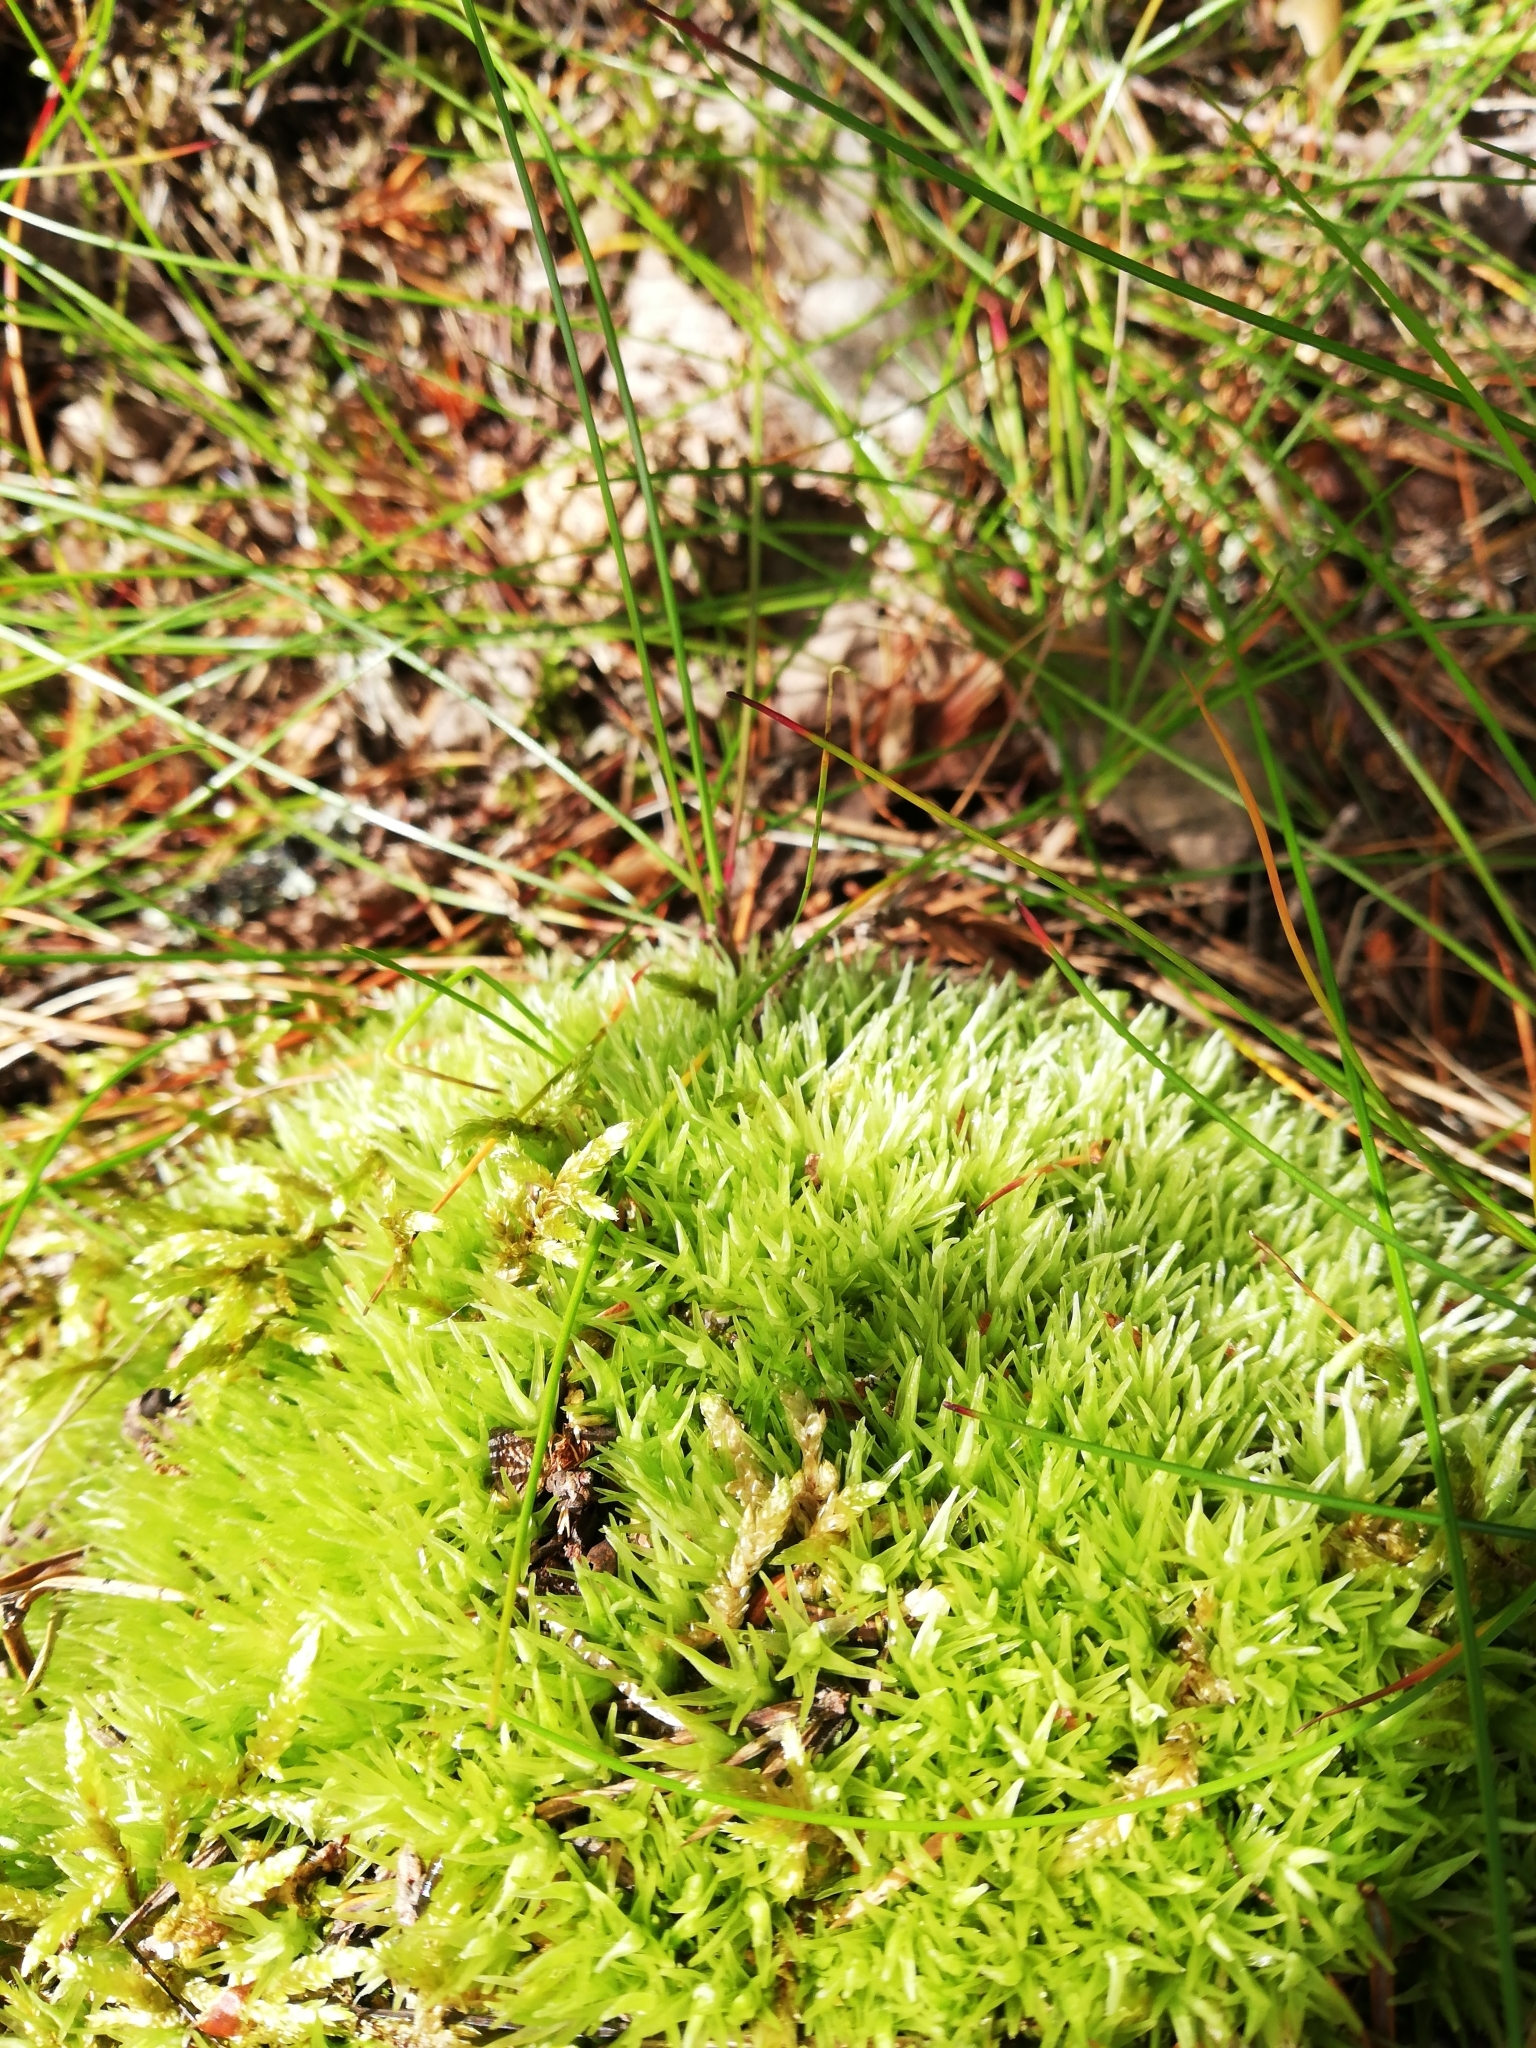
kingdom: Plantae
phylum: Bryophyta
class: Bryopsida
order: Dicranales
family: Leucobryaceae
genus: Leucobryum
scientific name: Leucobryum glaucum
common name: Large white-moss
